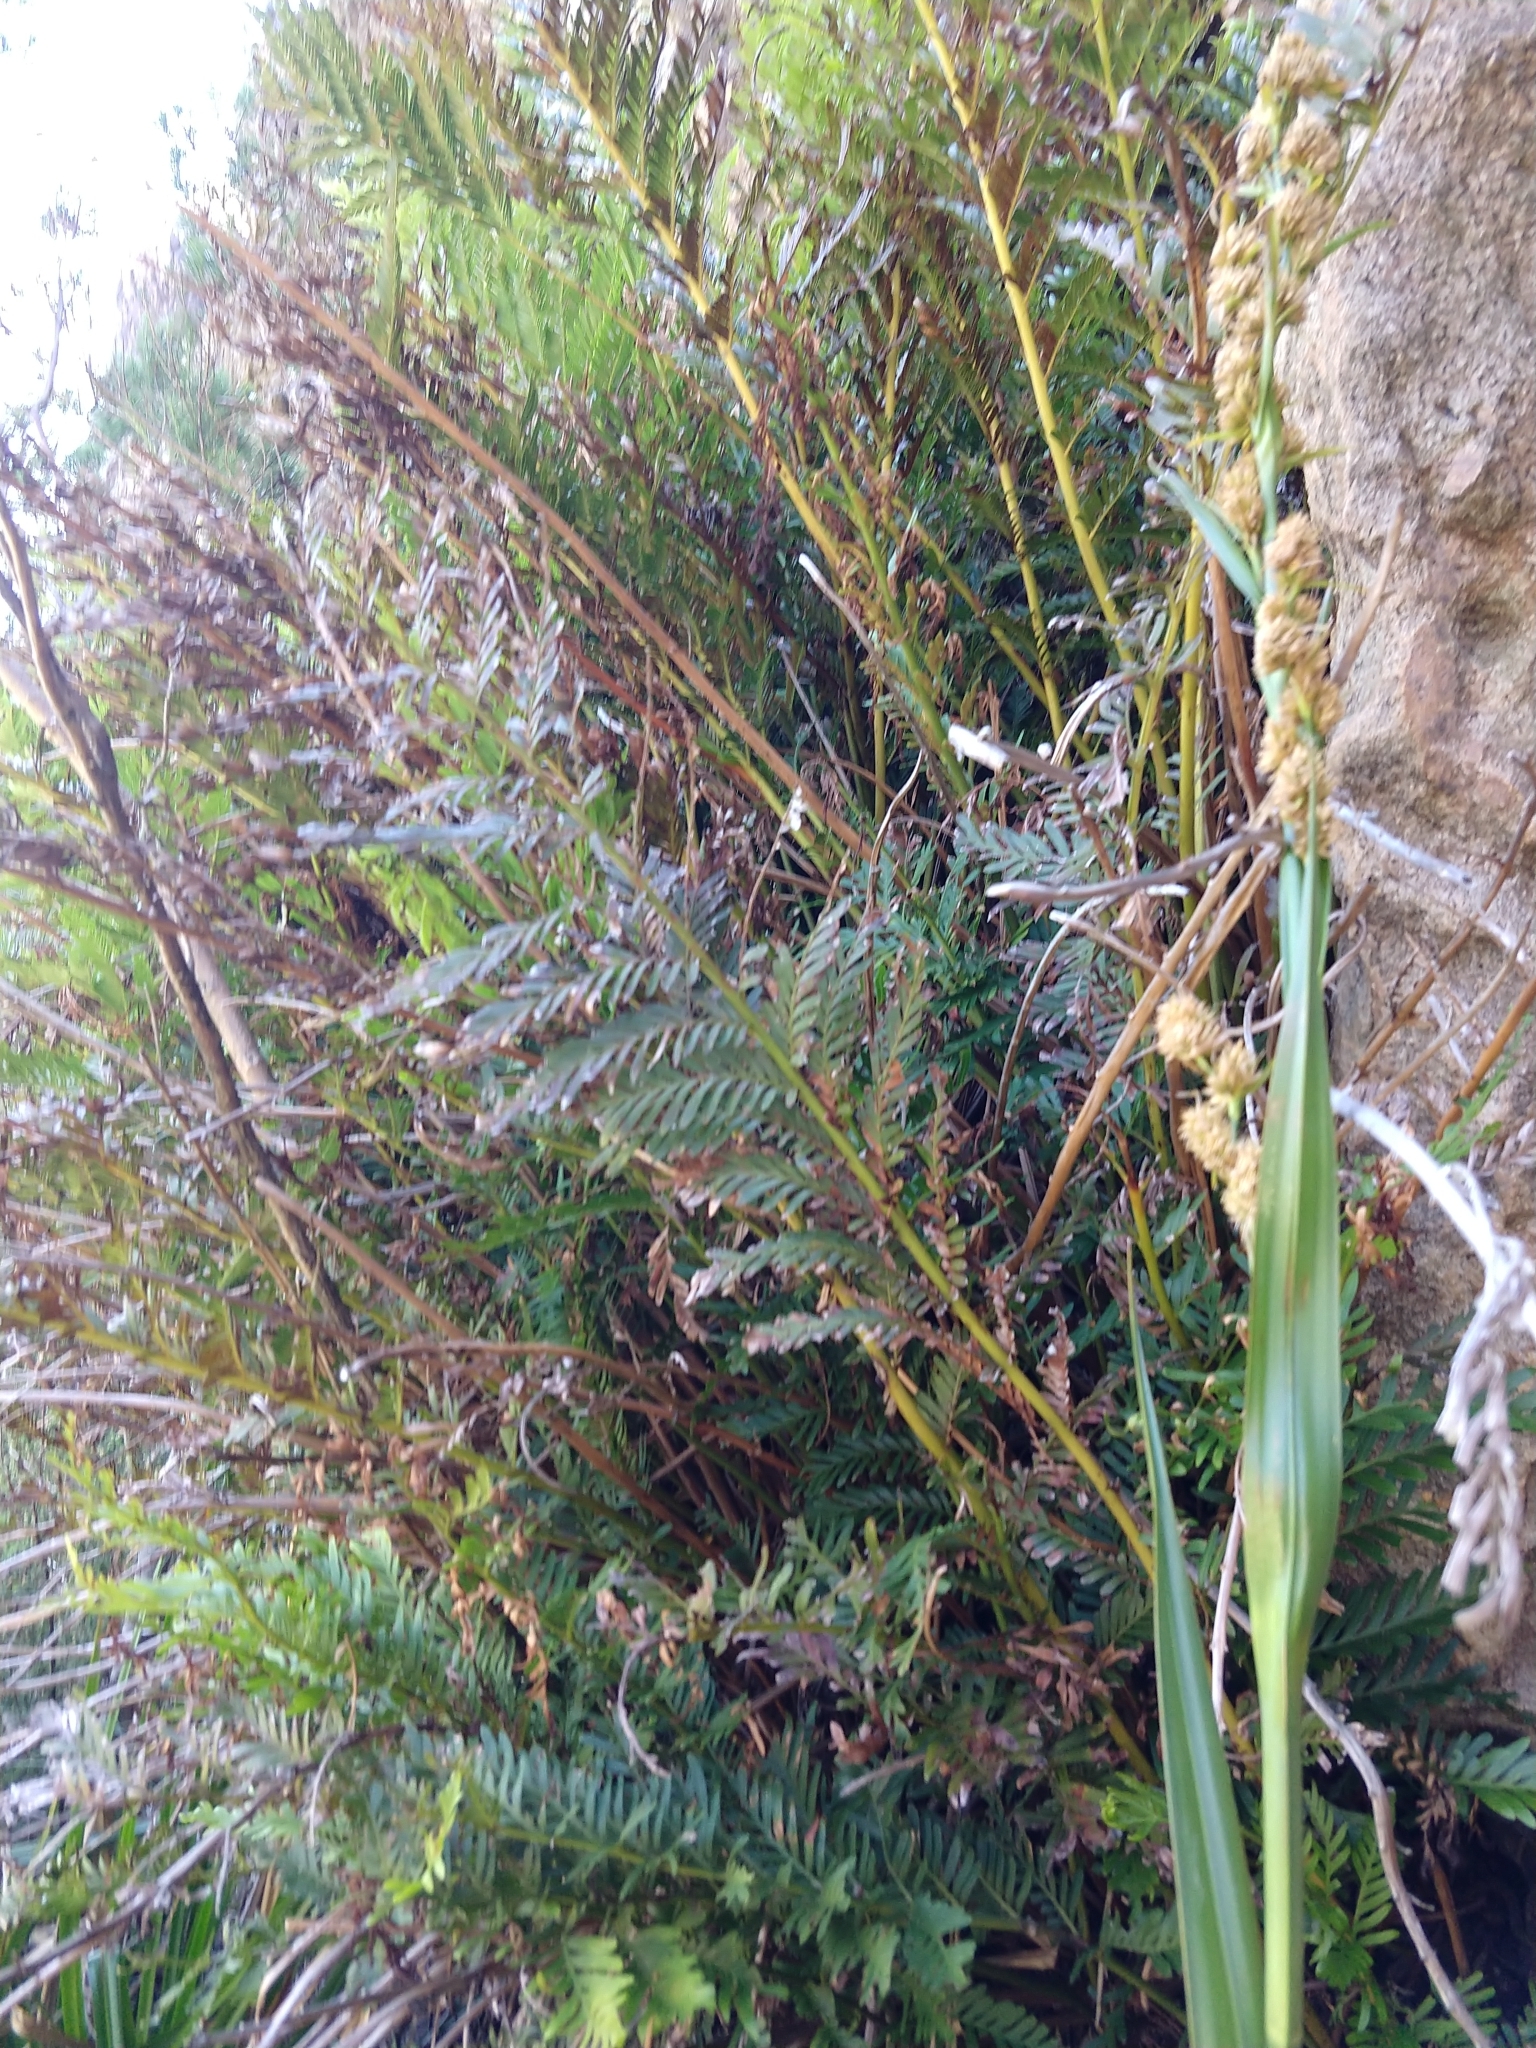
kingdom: Plantae
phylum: Tracheophyta
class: Polypodiopsida
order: Osmundales
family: Osmundaceae
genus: Todea
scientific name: Todea barbara
